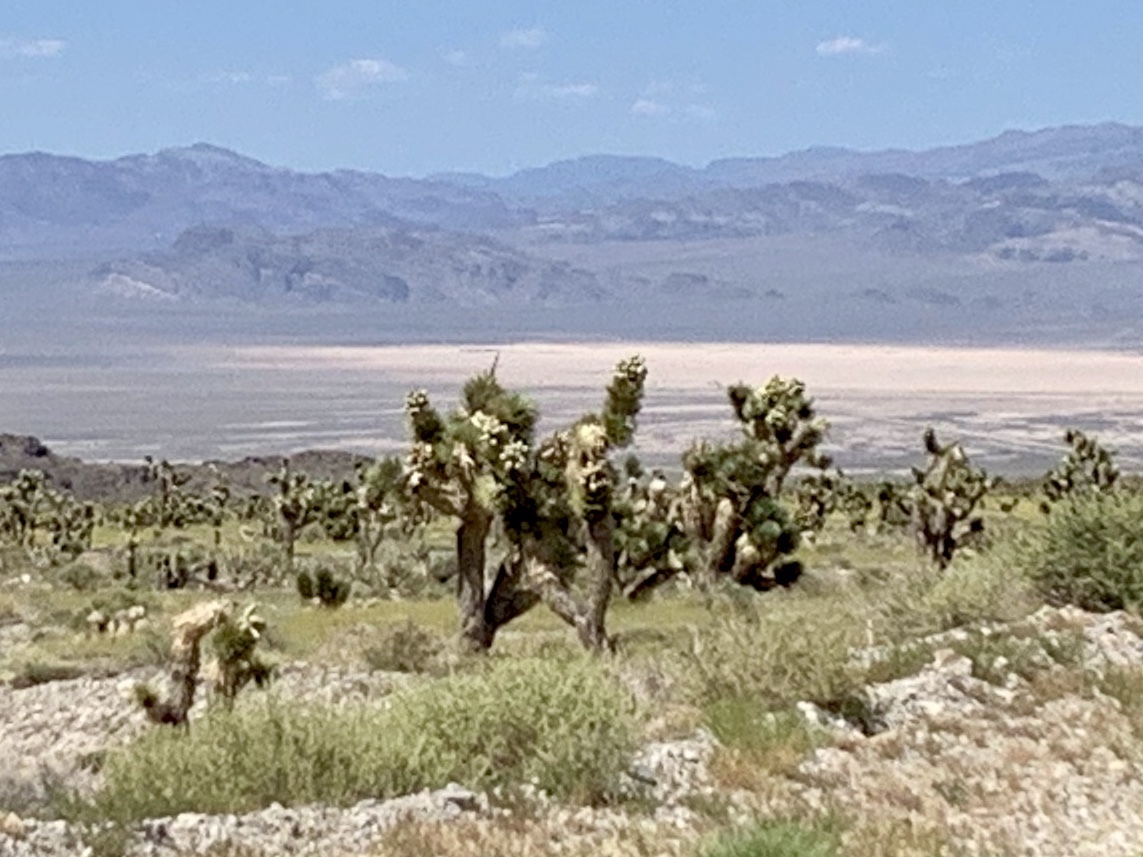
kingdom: Plantae
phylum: Tracheophyta
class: Liliopsida
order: Asparagales
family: Asparagaceae
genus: Yucca
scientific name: Yucca brevifolia
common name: Joshua tree
